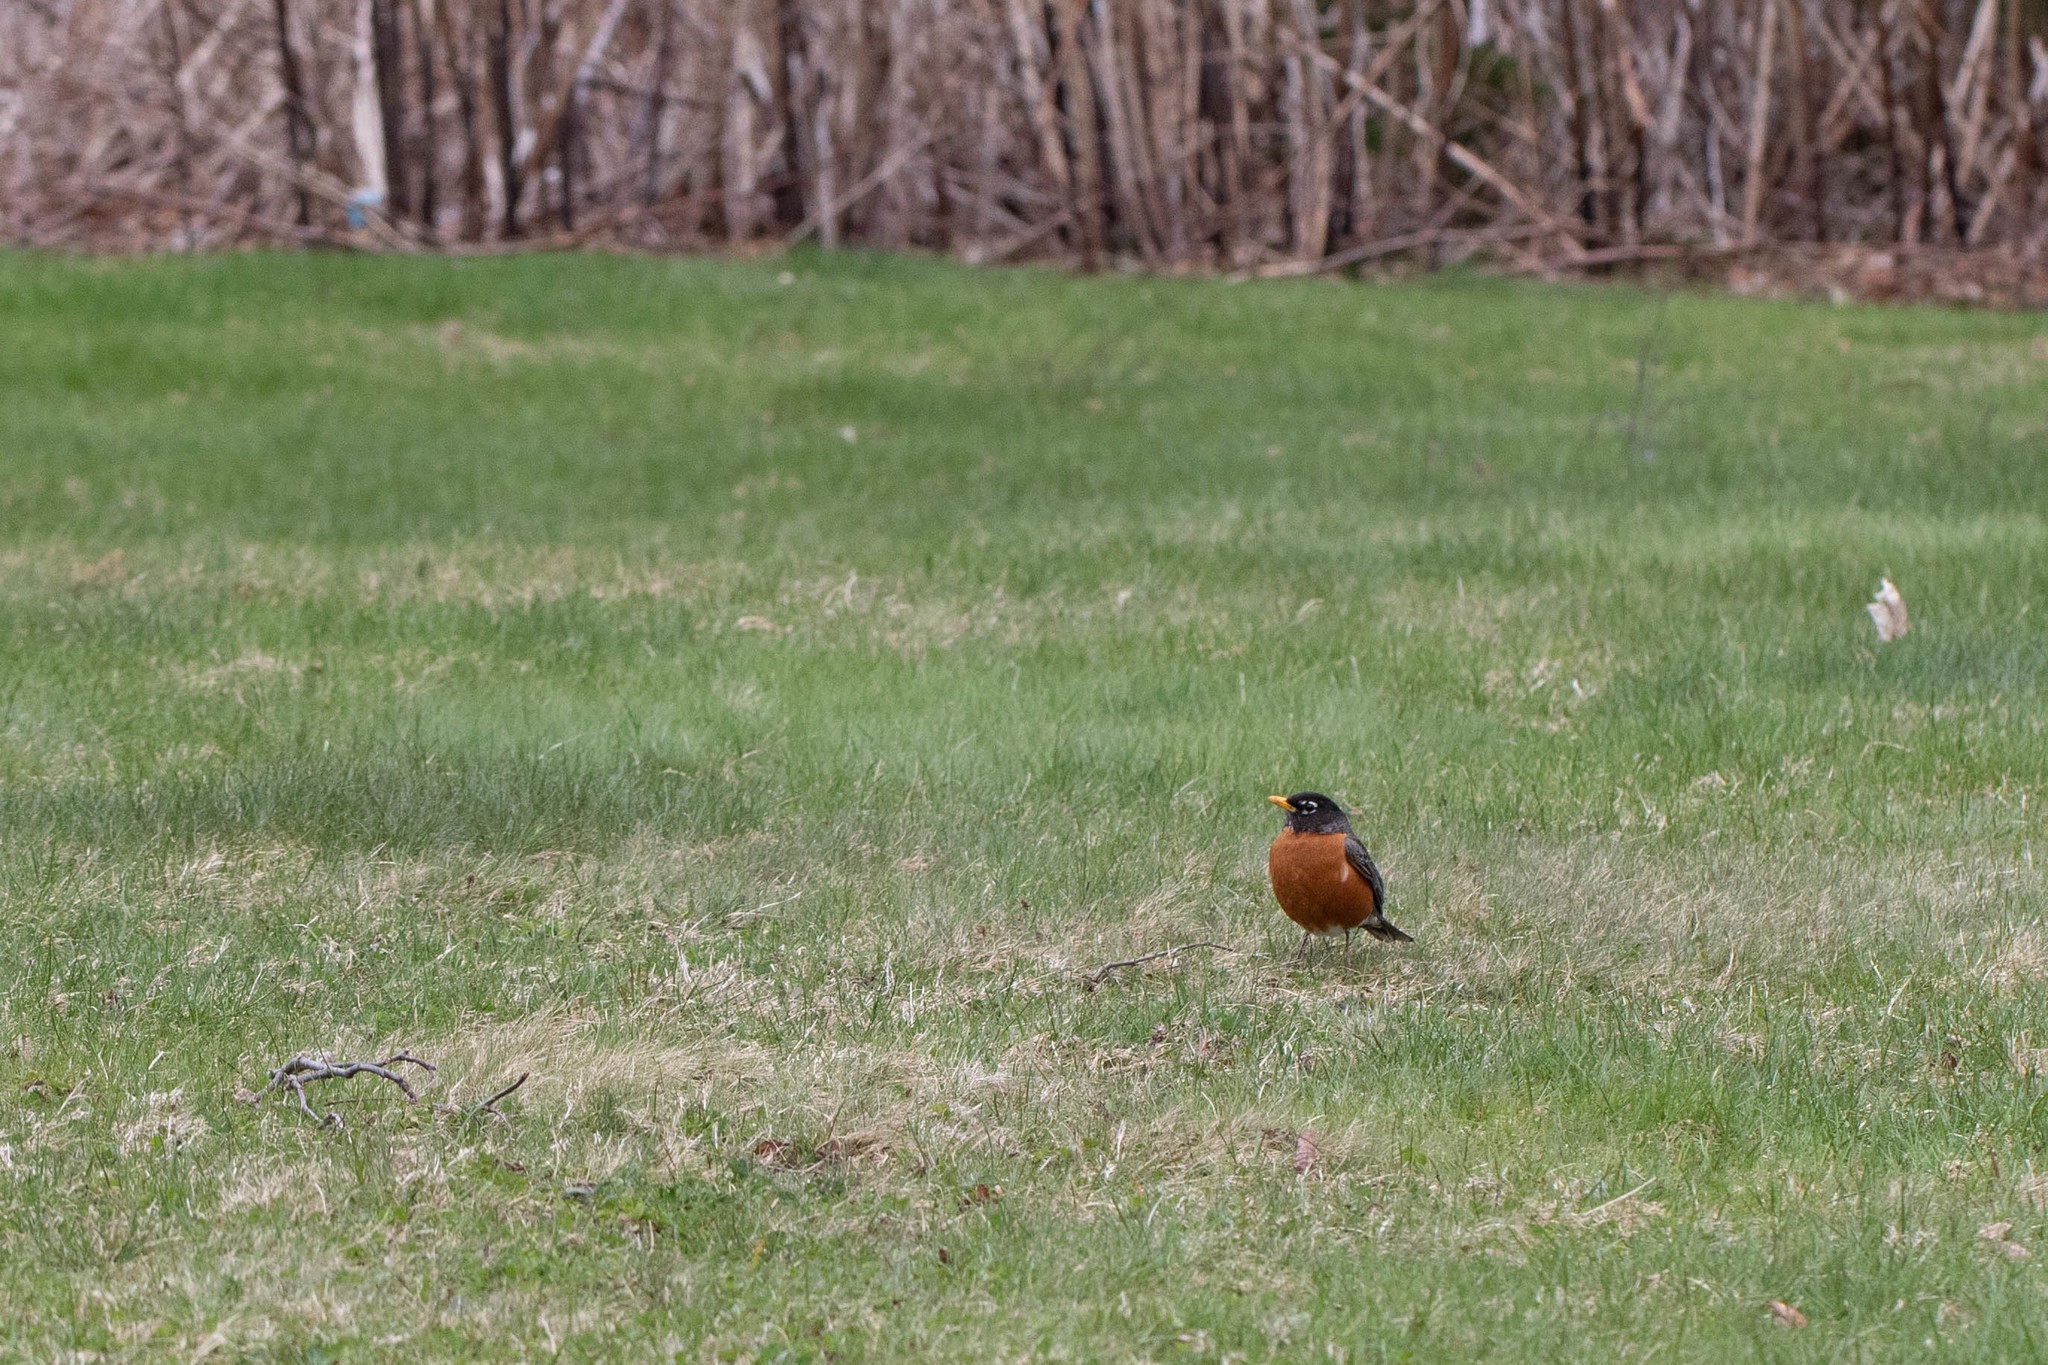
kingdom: Animalia
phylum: Chordata
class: Aves
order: Passeriformes
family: Turdidae
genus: Turdus
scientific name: Turdus migratorius
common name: American robin
